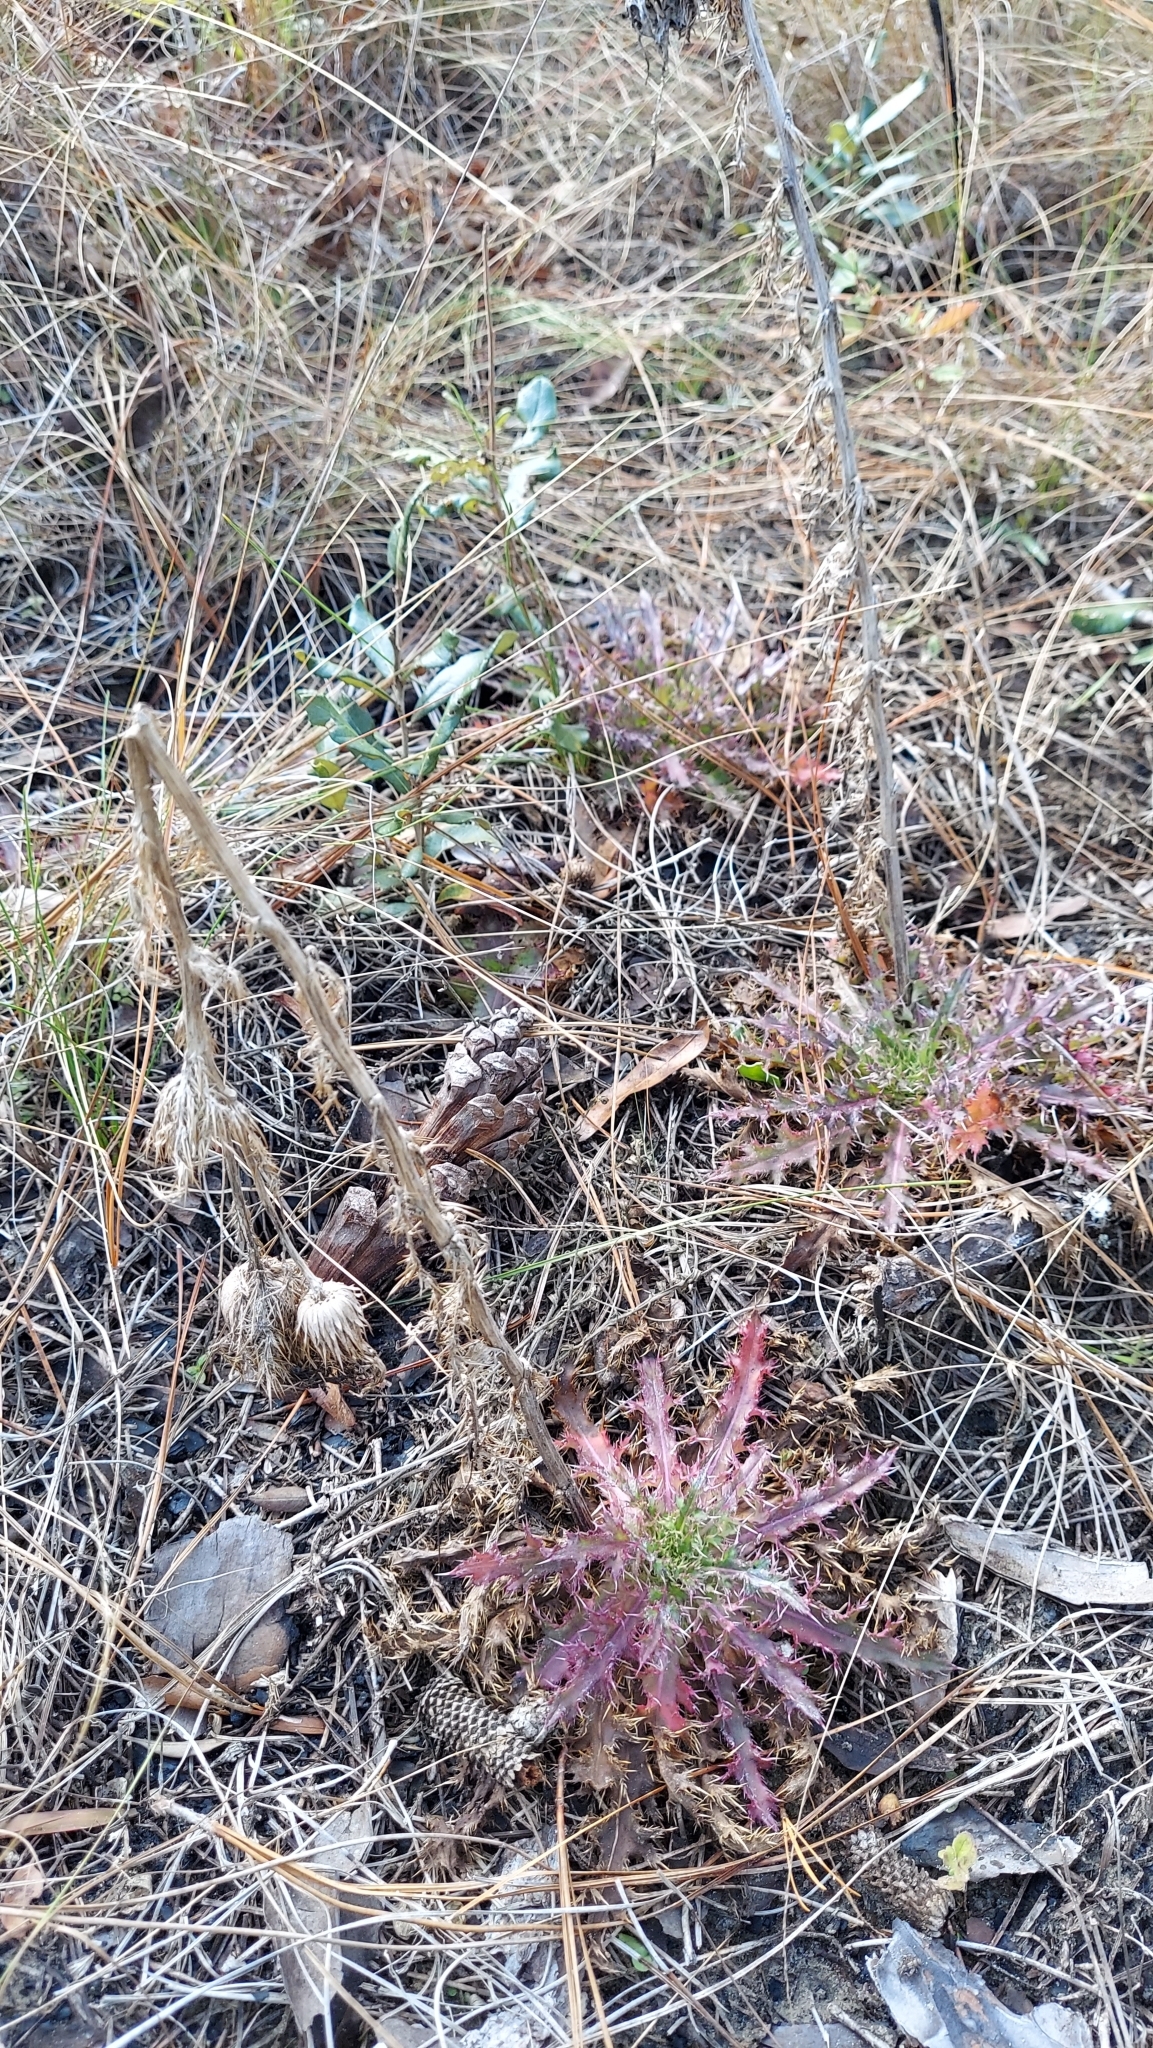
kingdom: Plantae
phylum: Tracheophyta
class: Magnoliopsida
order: Asterales
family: Asteraceae
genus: Cirsium
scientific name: Cirsium horridulum
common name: Bristly thistle
